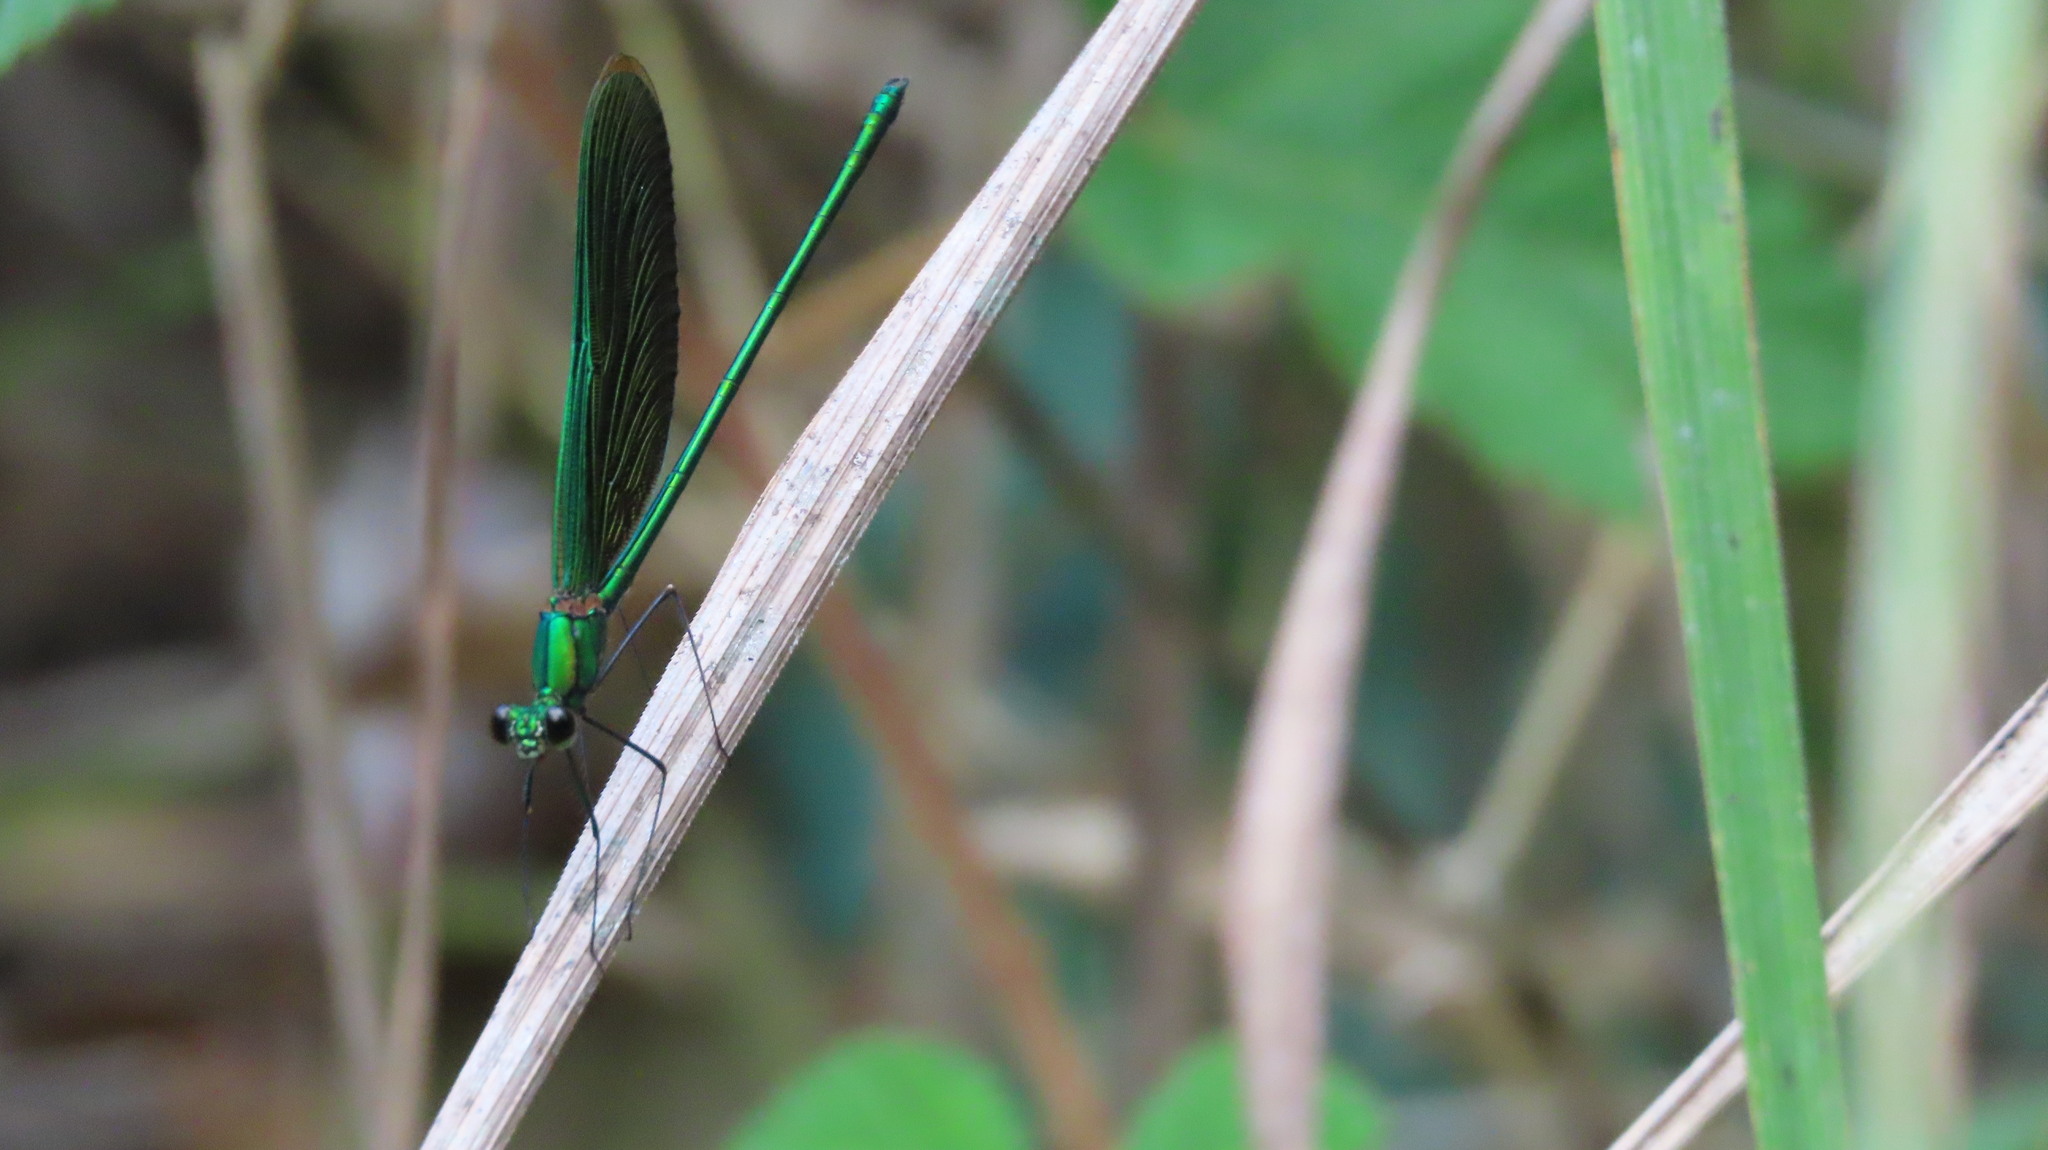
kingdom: Animalia
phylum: Arthropoda
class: Insecta
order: Odonata
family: Calopterygidae
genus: Neurobasis
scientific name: Neurobasis chinensis
